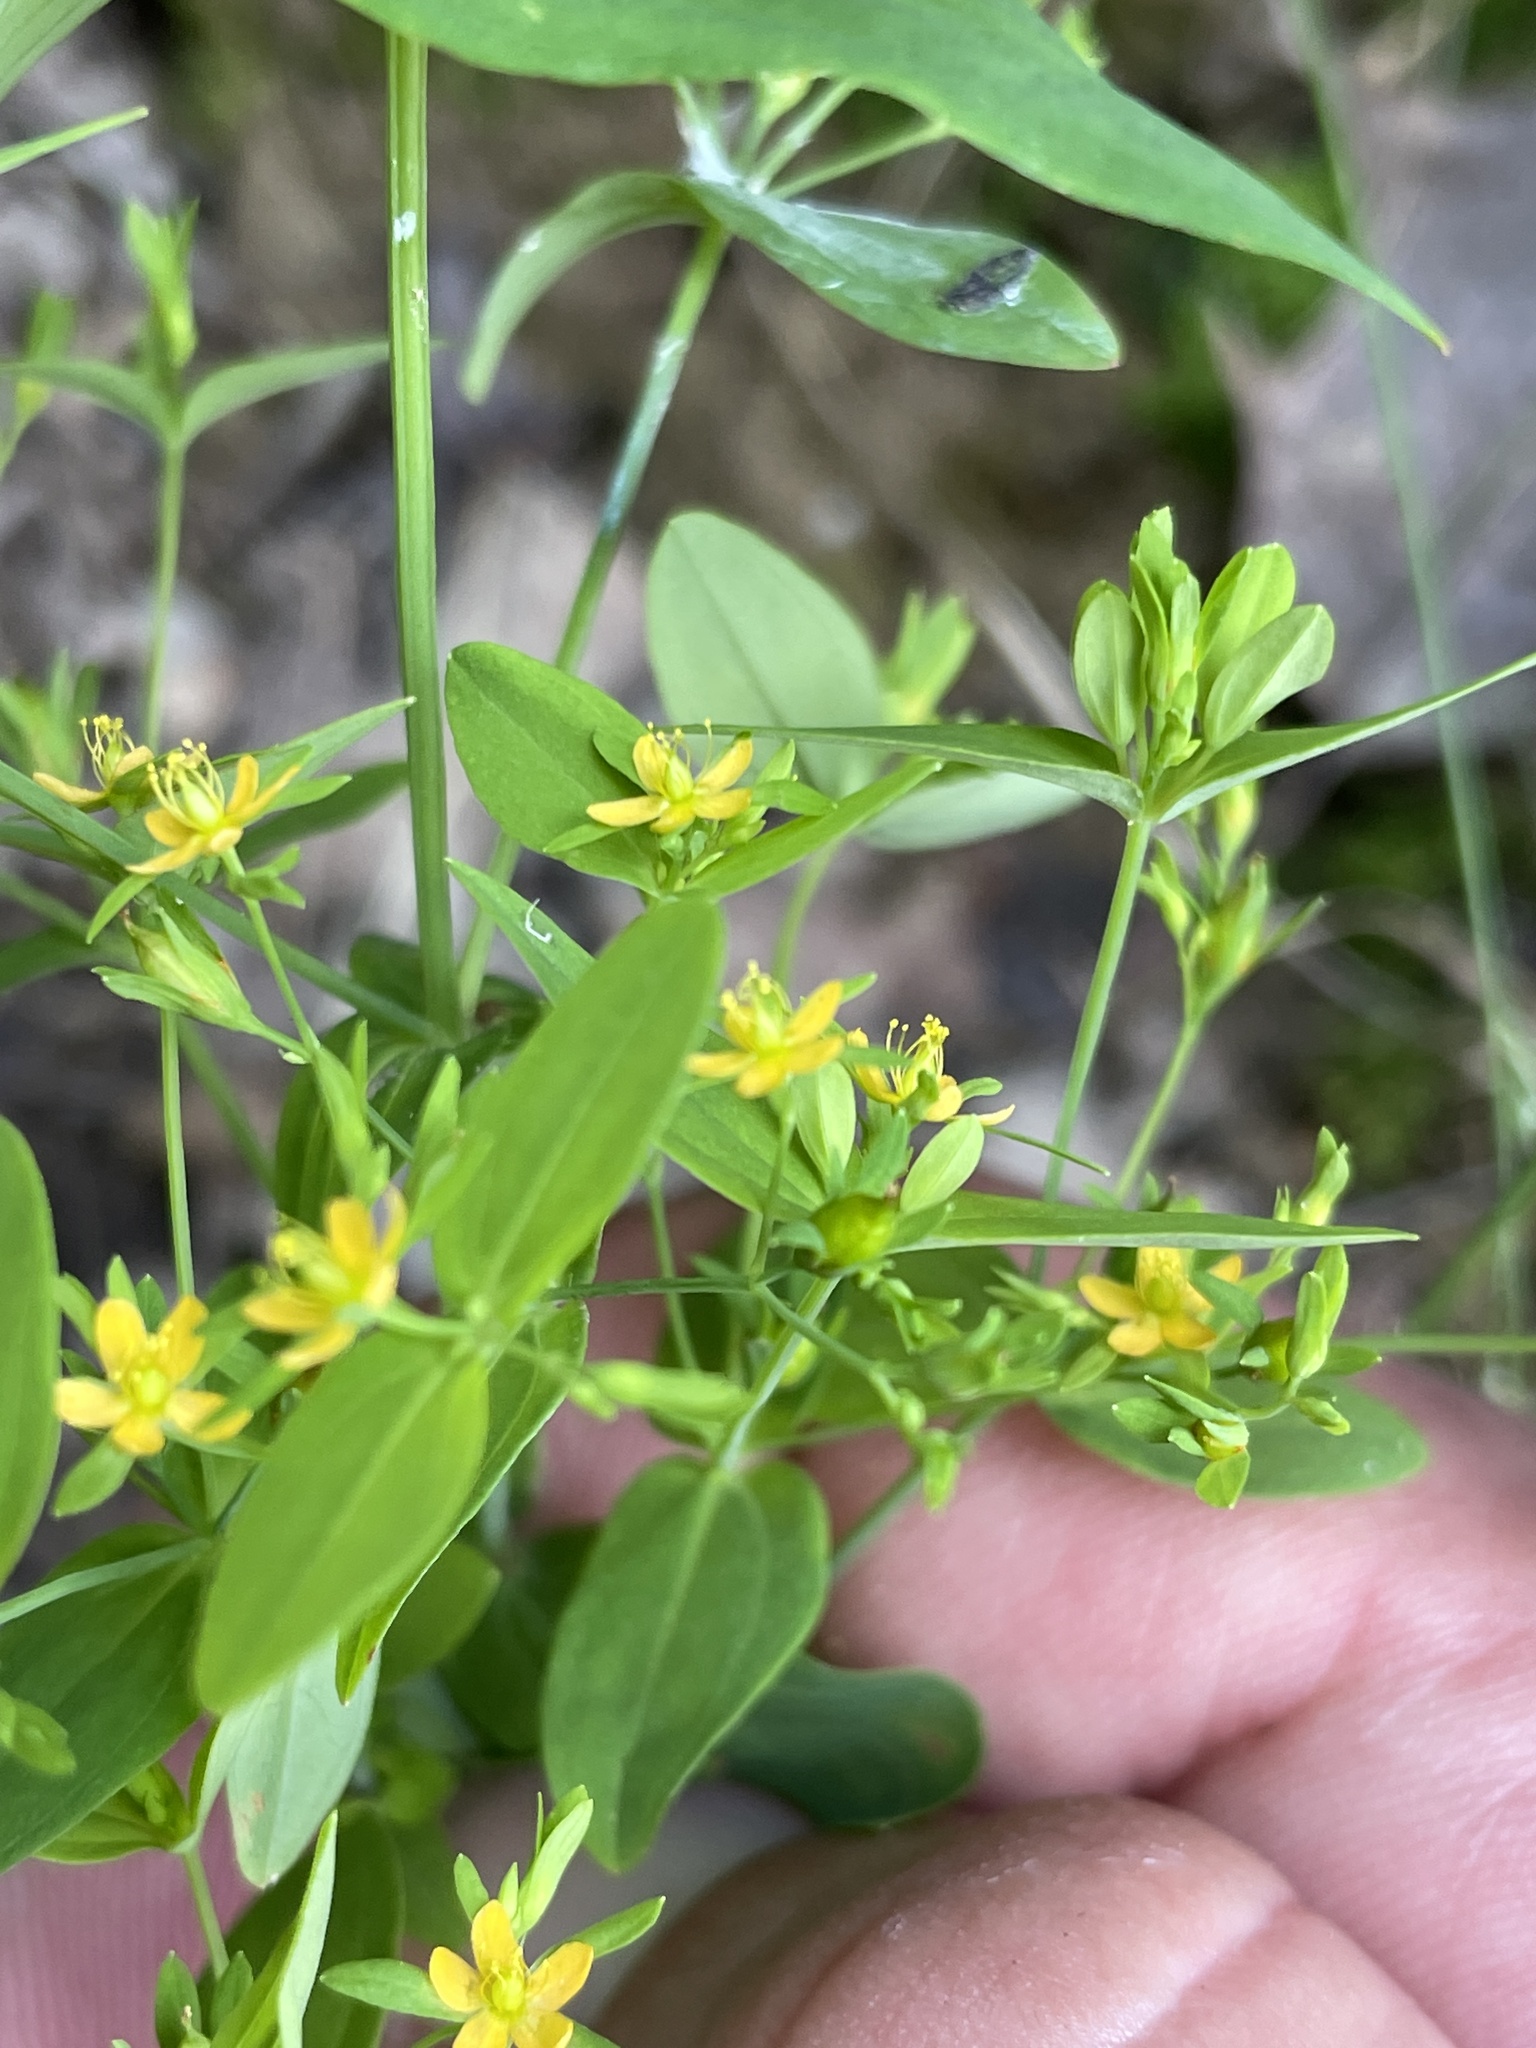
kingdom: Plantae
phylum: Tracheophyta
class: Magnoliopsida
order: Malpighiales
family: Hypericaceae
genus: Hypericum
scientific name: Hypericum mutilum
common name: Dwarf st. john's-wort
